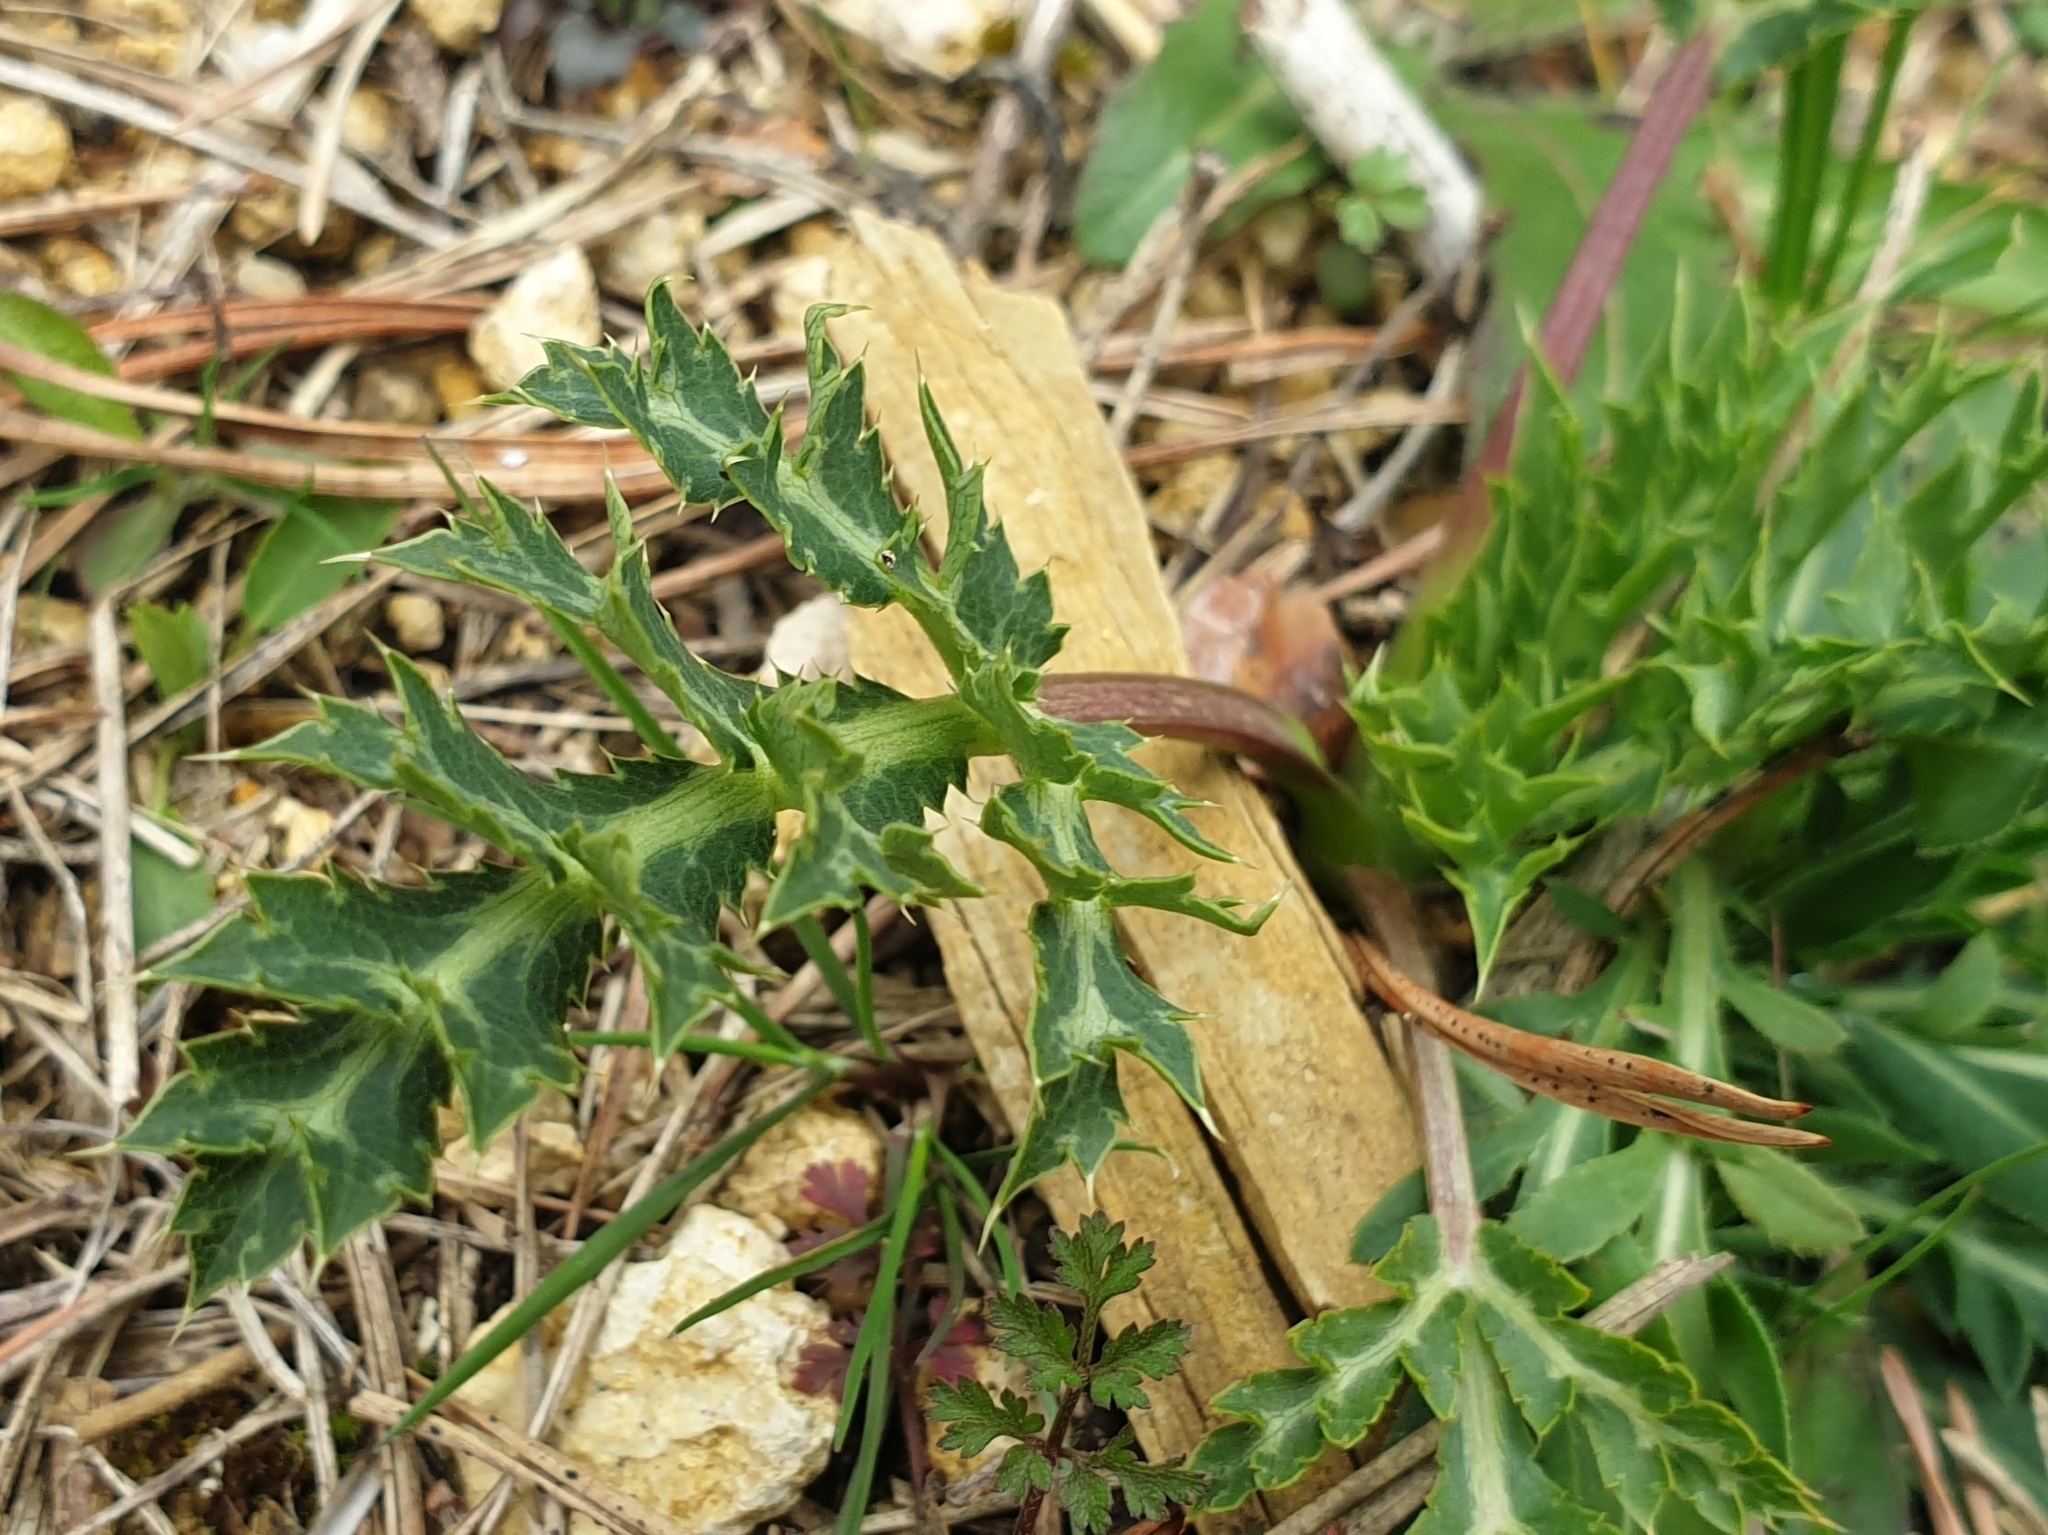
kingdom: Plantae
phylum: Tracheophyta
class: Magnoliopsida
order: Apiales
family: Apiaceae
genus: Eryngium
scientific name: Eryngium campestre
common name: Field eryngo
